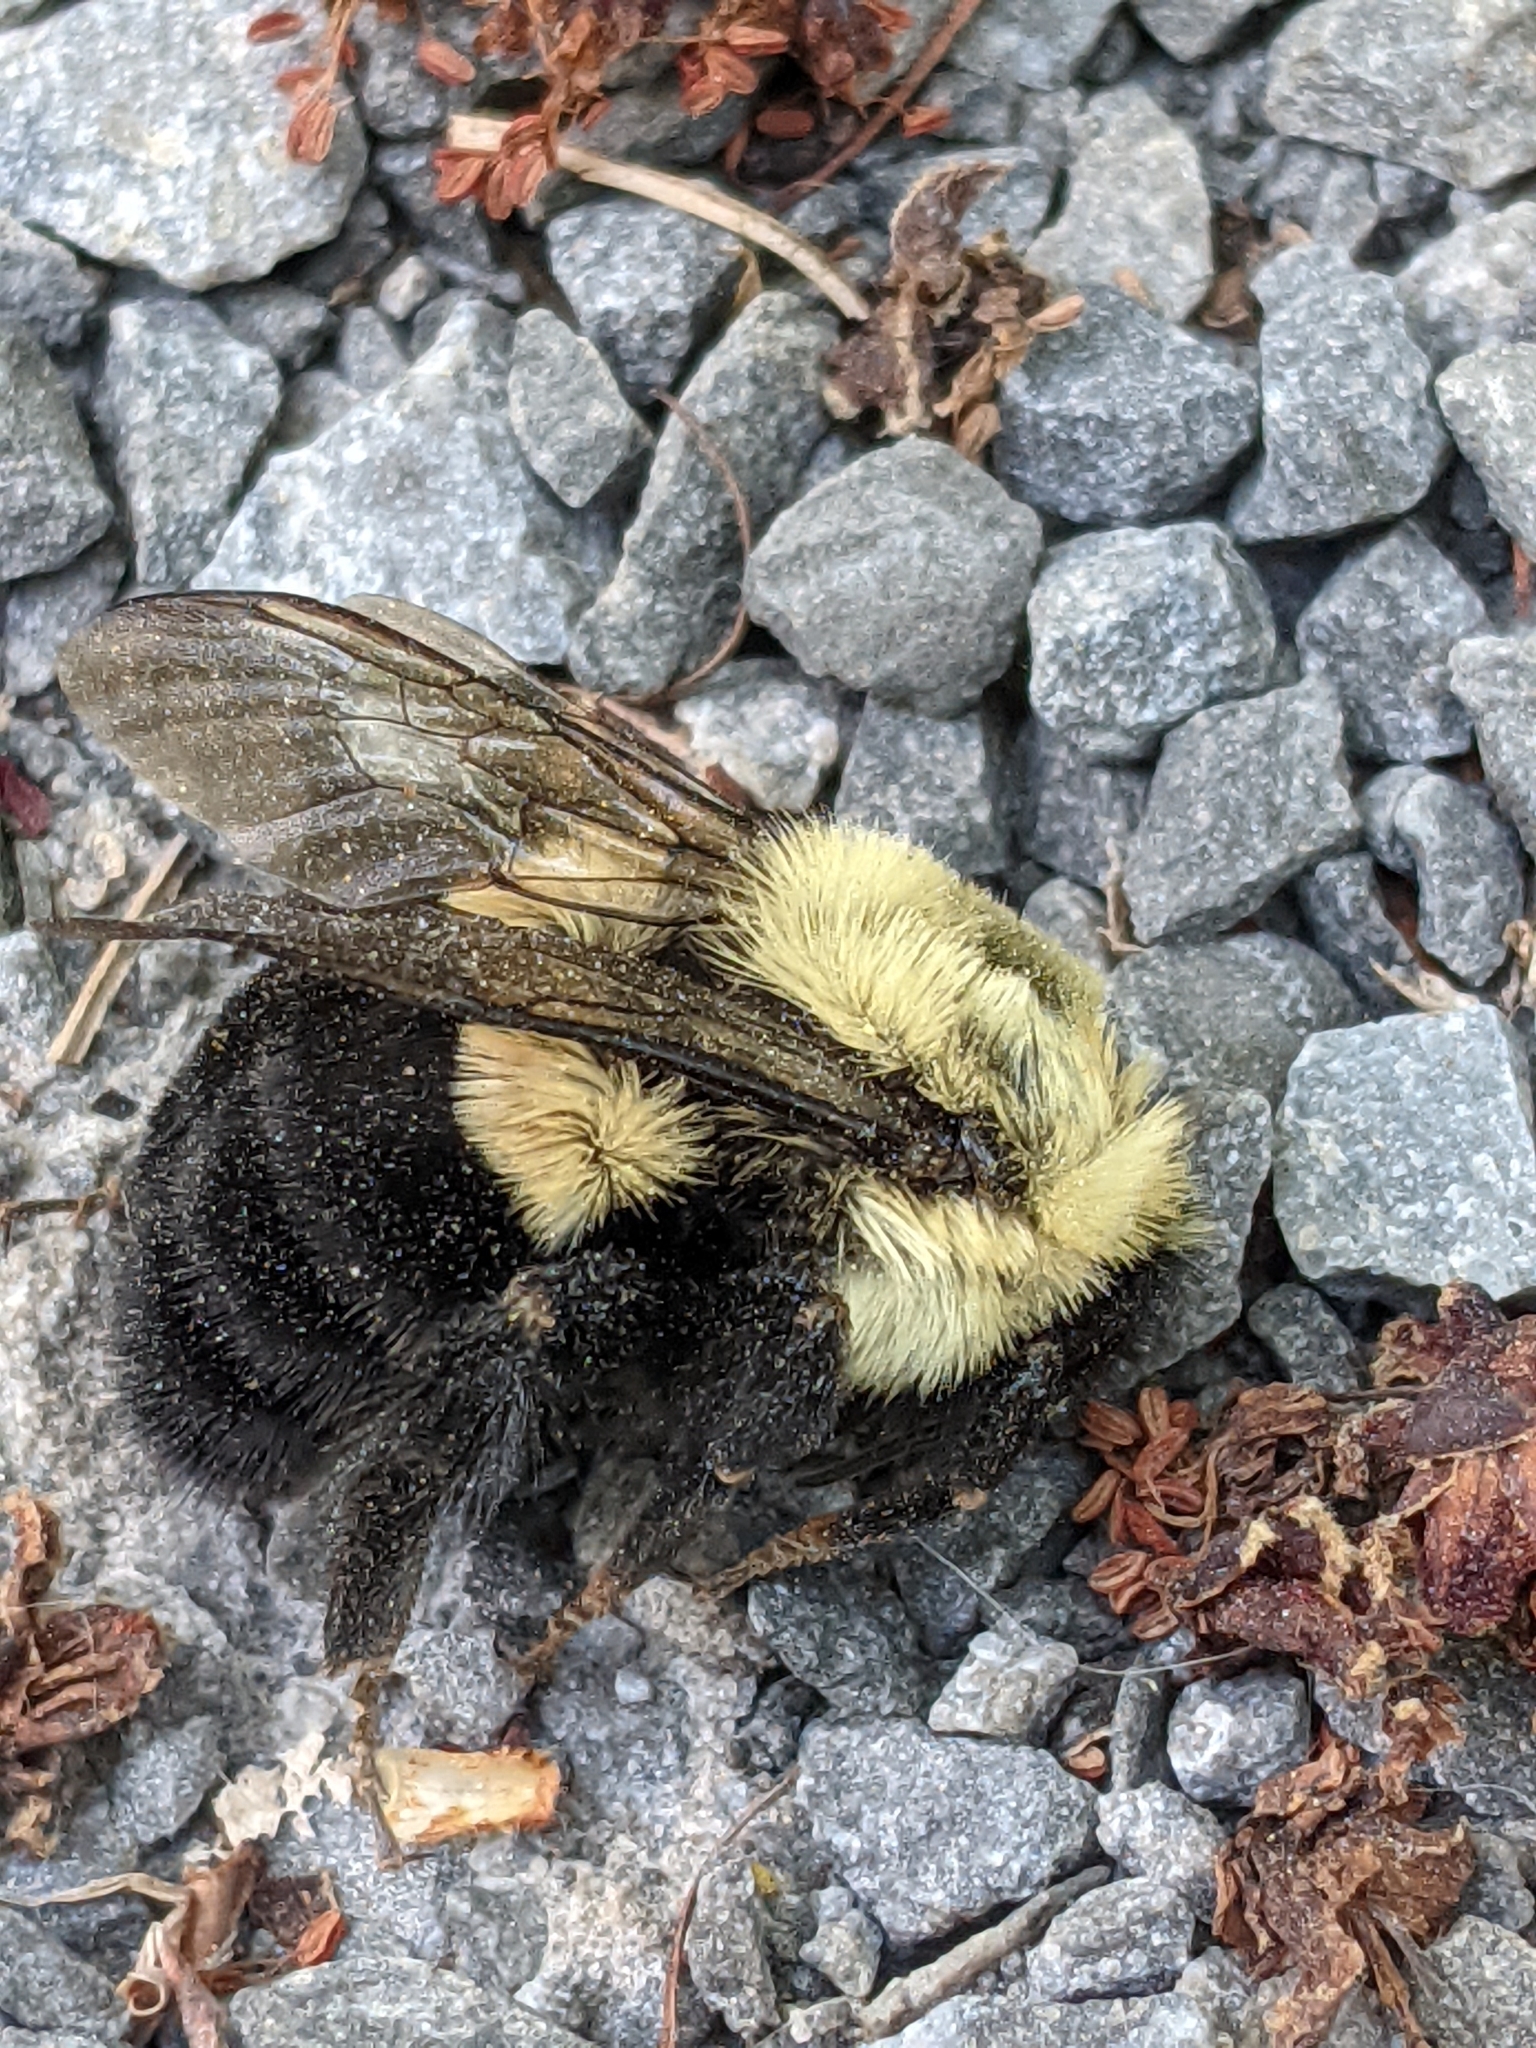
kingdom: Animalia
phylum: Arthropoda
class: Insecta
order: Hymenoptera
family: Apidae
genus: Bombus
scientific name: Bombus impatiens
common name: Common eastern bumble bee
